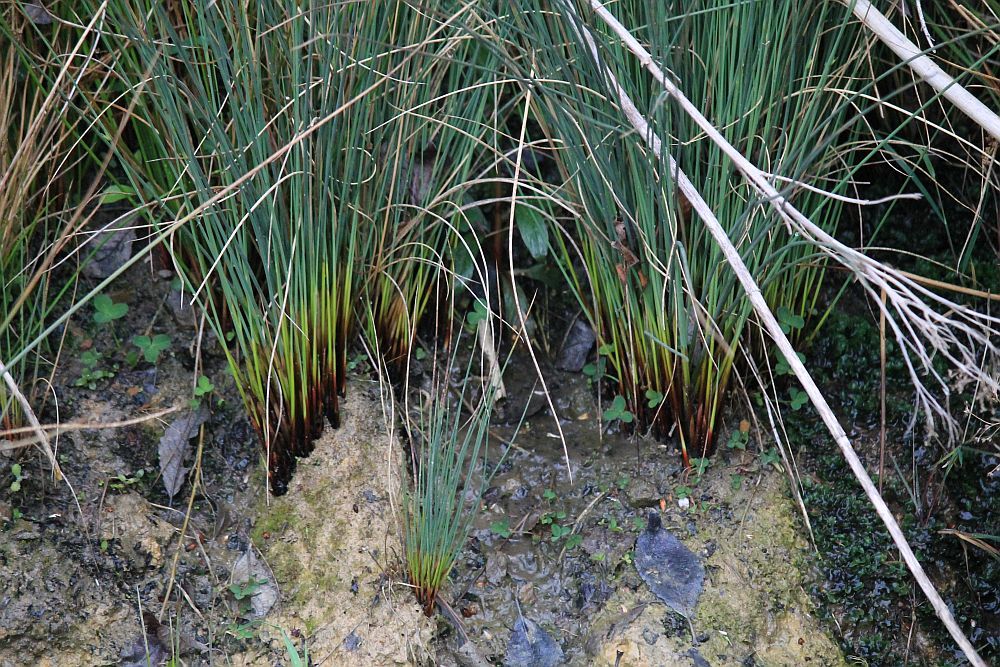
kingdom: Plantae
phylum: Tracheophyta
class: Liliopsida
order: Poales
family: Juncaceae
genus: Juncus
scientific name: Juncus inflexus
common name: Hard rush
